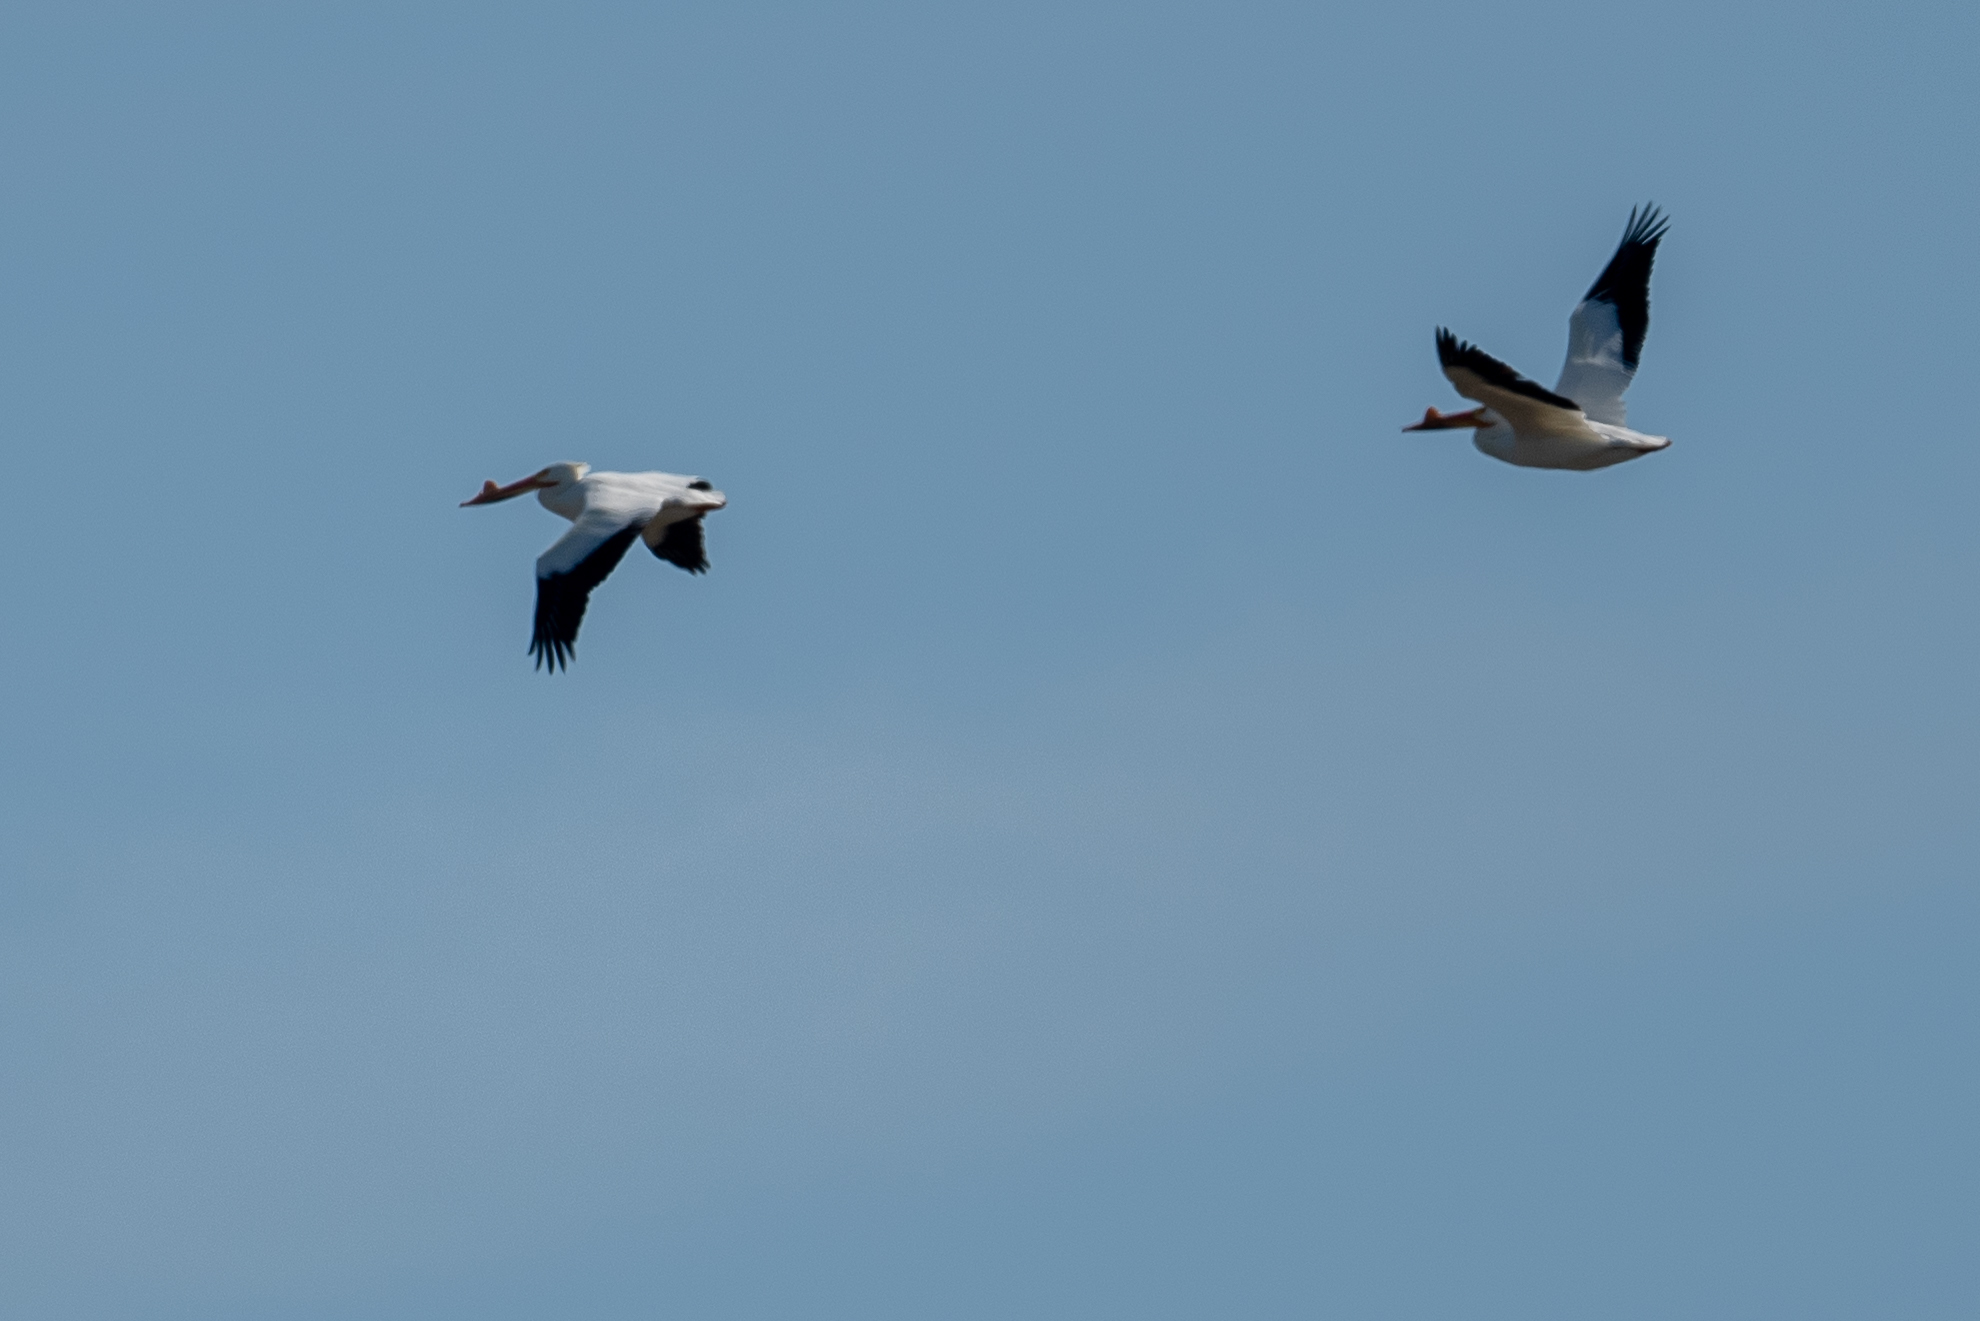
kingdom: Animalia
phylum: Chordata
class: Aves
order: Pelecaniformes
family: Pelecanidae
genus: Pelecanus
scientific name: Pelecanus erythrorhynchos
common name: American white pelican
